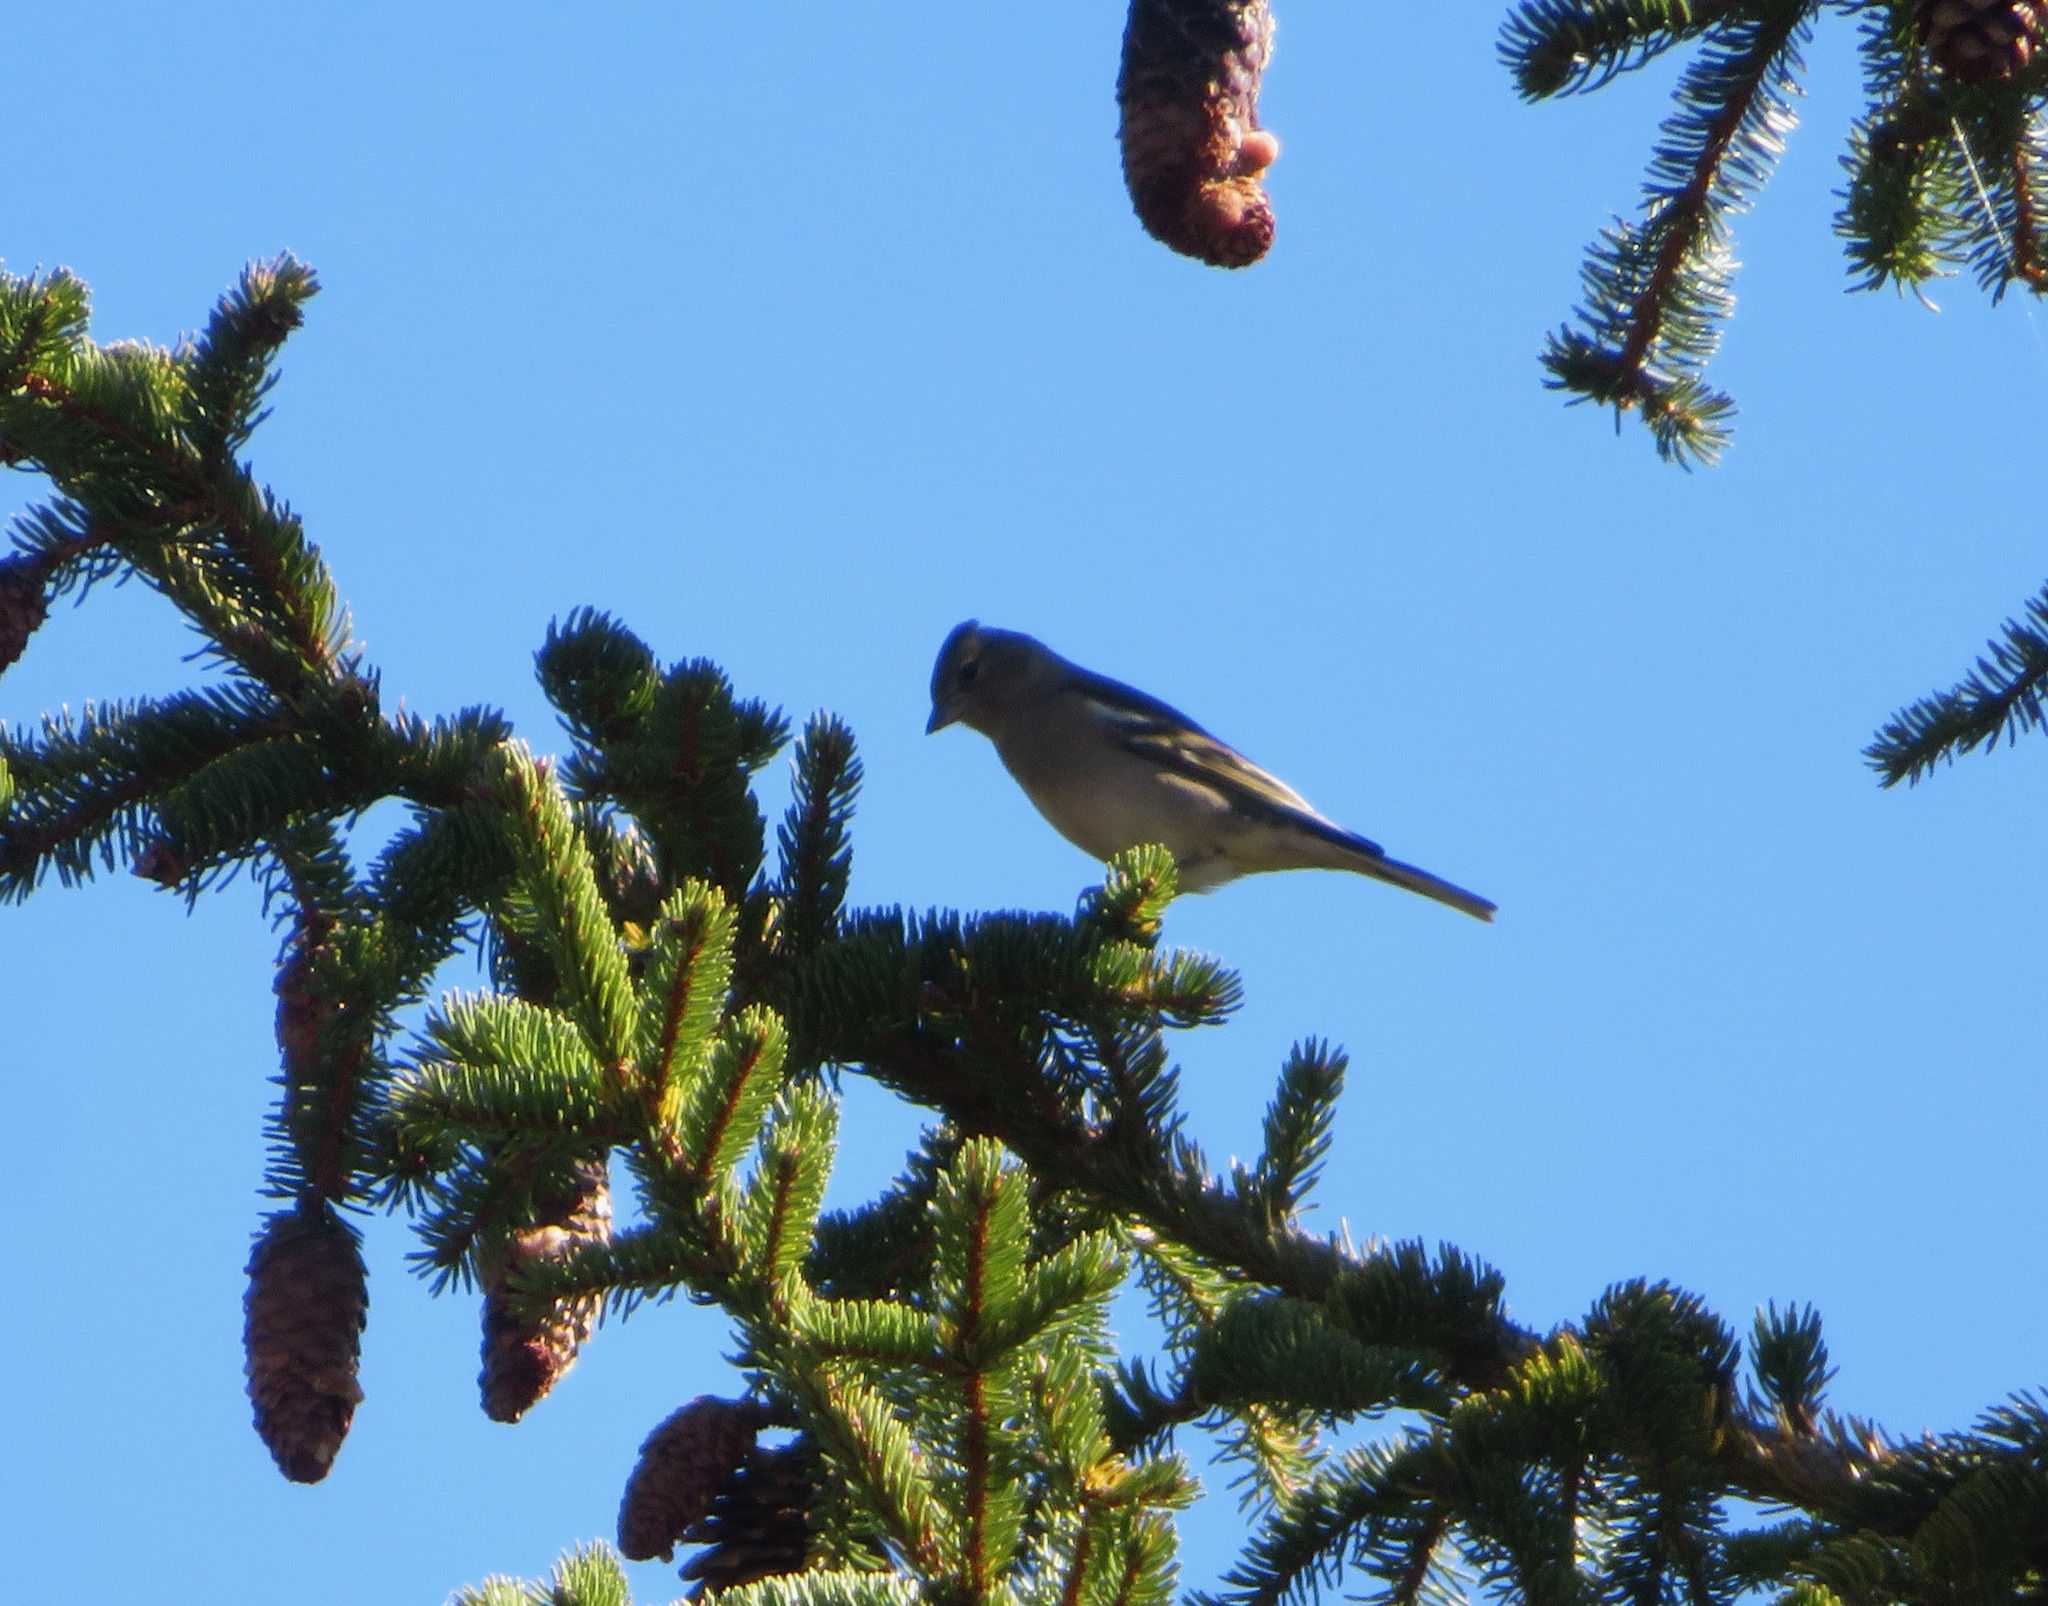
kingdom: Animalia
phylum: Chordata
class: Aves
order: Passeriformes
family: Fringillidae
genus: Fringilla
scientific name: Fringilla coelebs
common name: Common chaffinch
